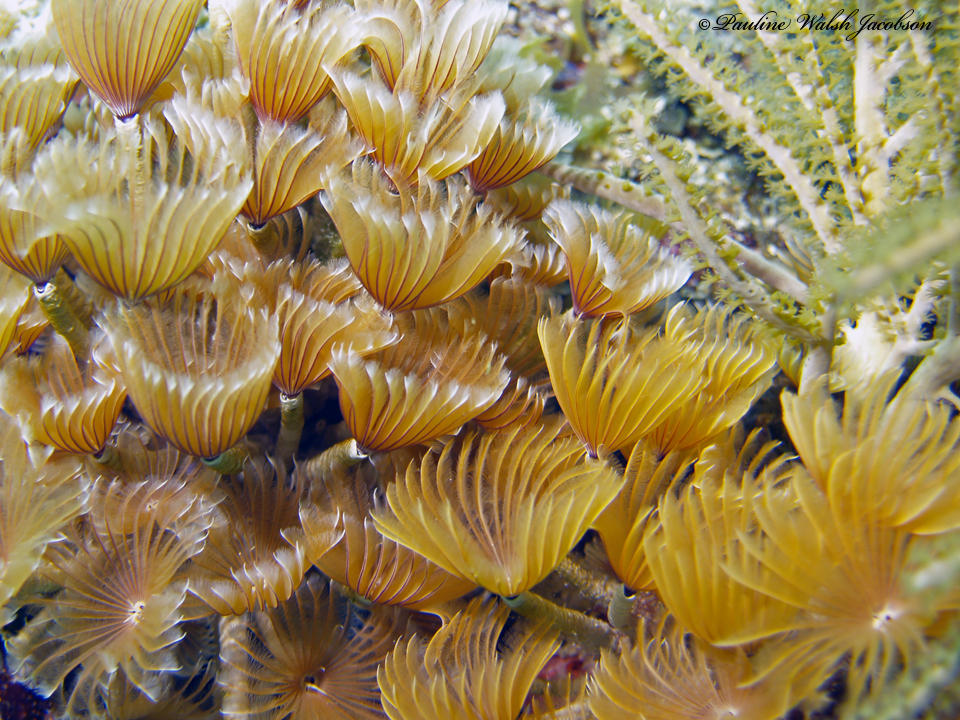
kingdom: Animalia
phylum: Annelida
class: Polychaeta
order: Sabellida
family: Sabellidae
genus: Bispira
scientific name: Bispira brunnea
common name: Social feather duster
